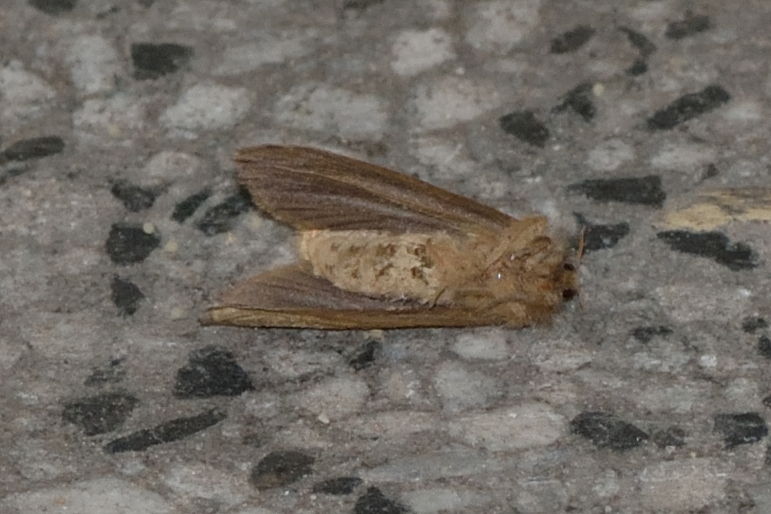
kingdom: Animalia
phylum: Arthropoda
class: Insecta
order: Lepidoptera
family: Hepialidae
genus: Korscheltellus
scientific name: Korscheltellus lupulina
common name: Common swift
